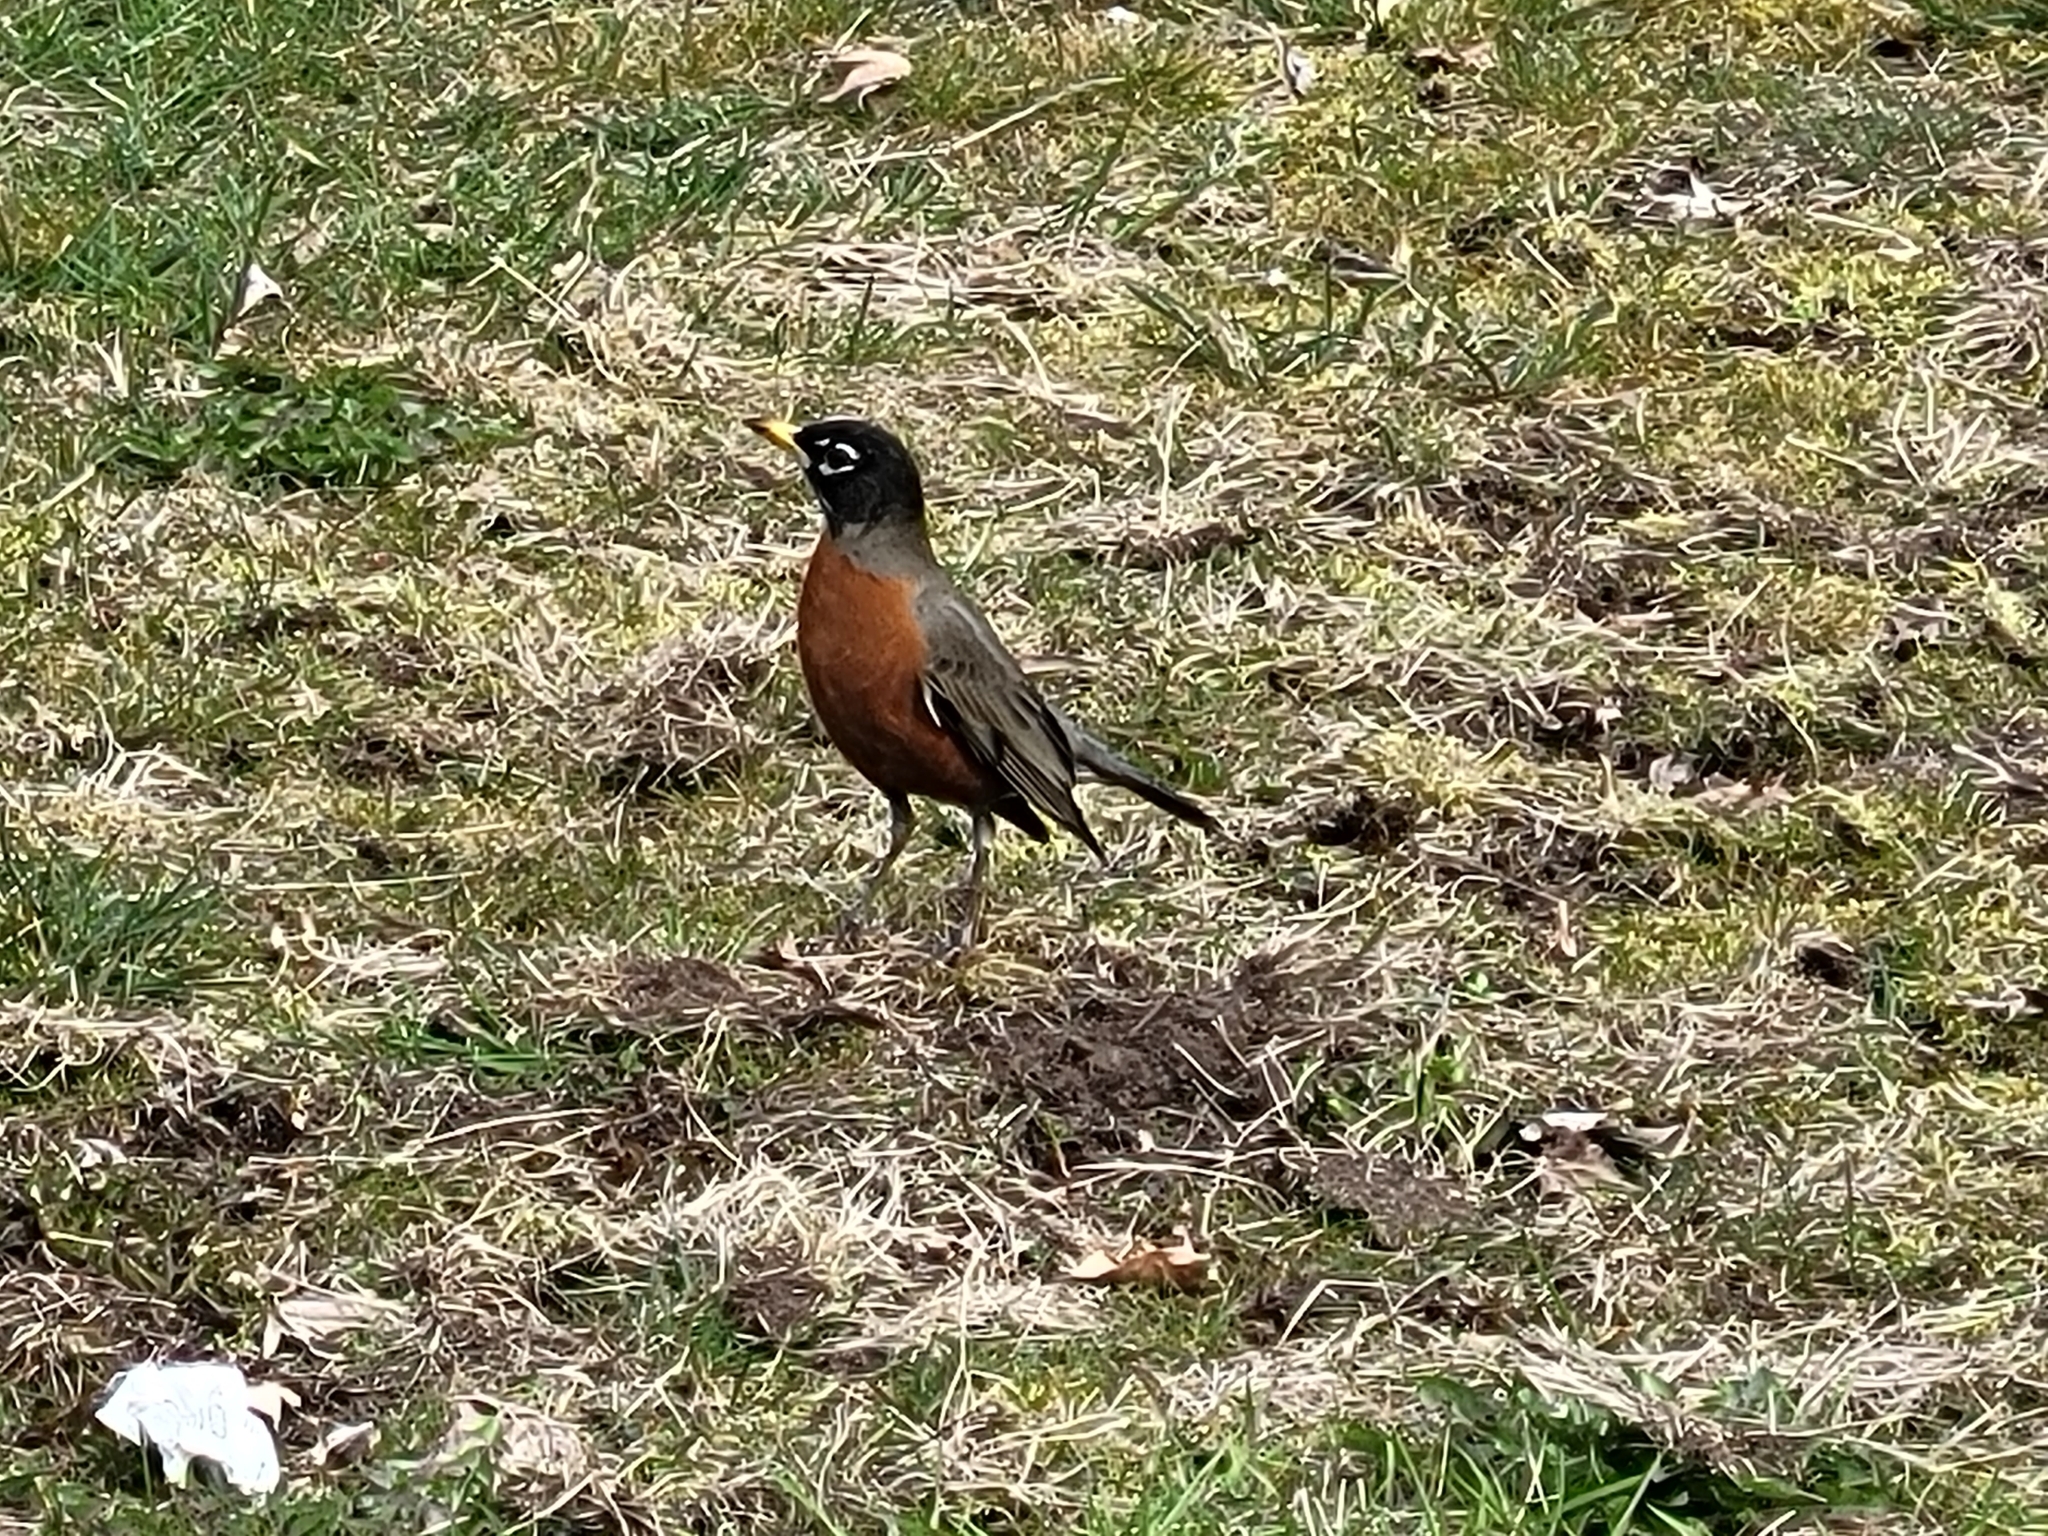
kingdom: Animalia
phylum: Chordata
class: Aves
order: Passeriformes
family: Turdidae
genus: Turdus
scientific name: Turdus migratorius
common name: American robin
